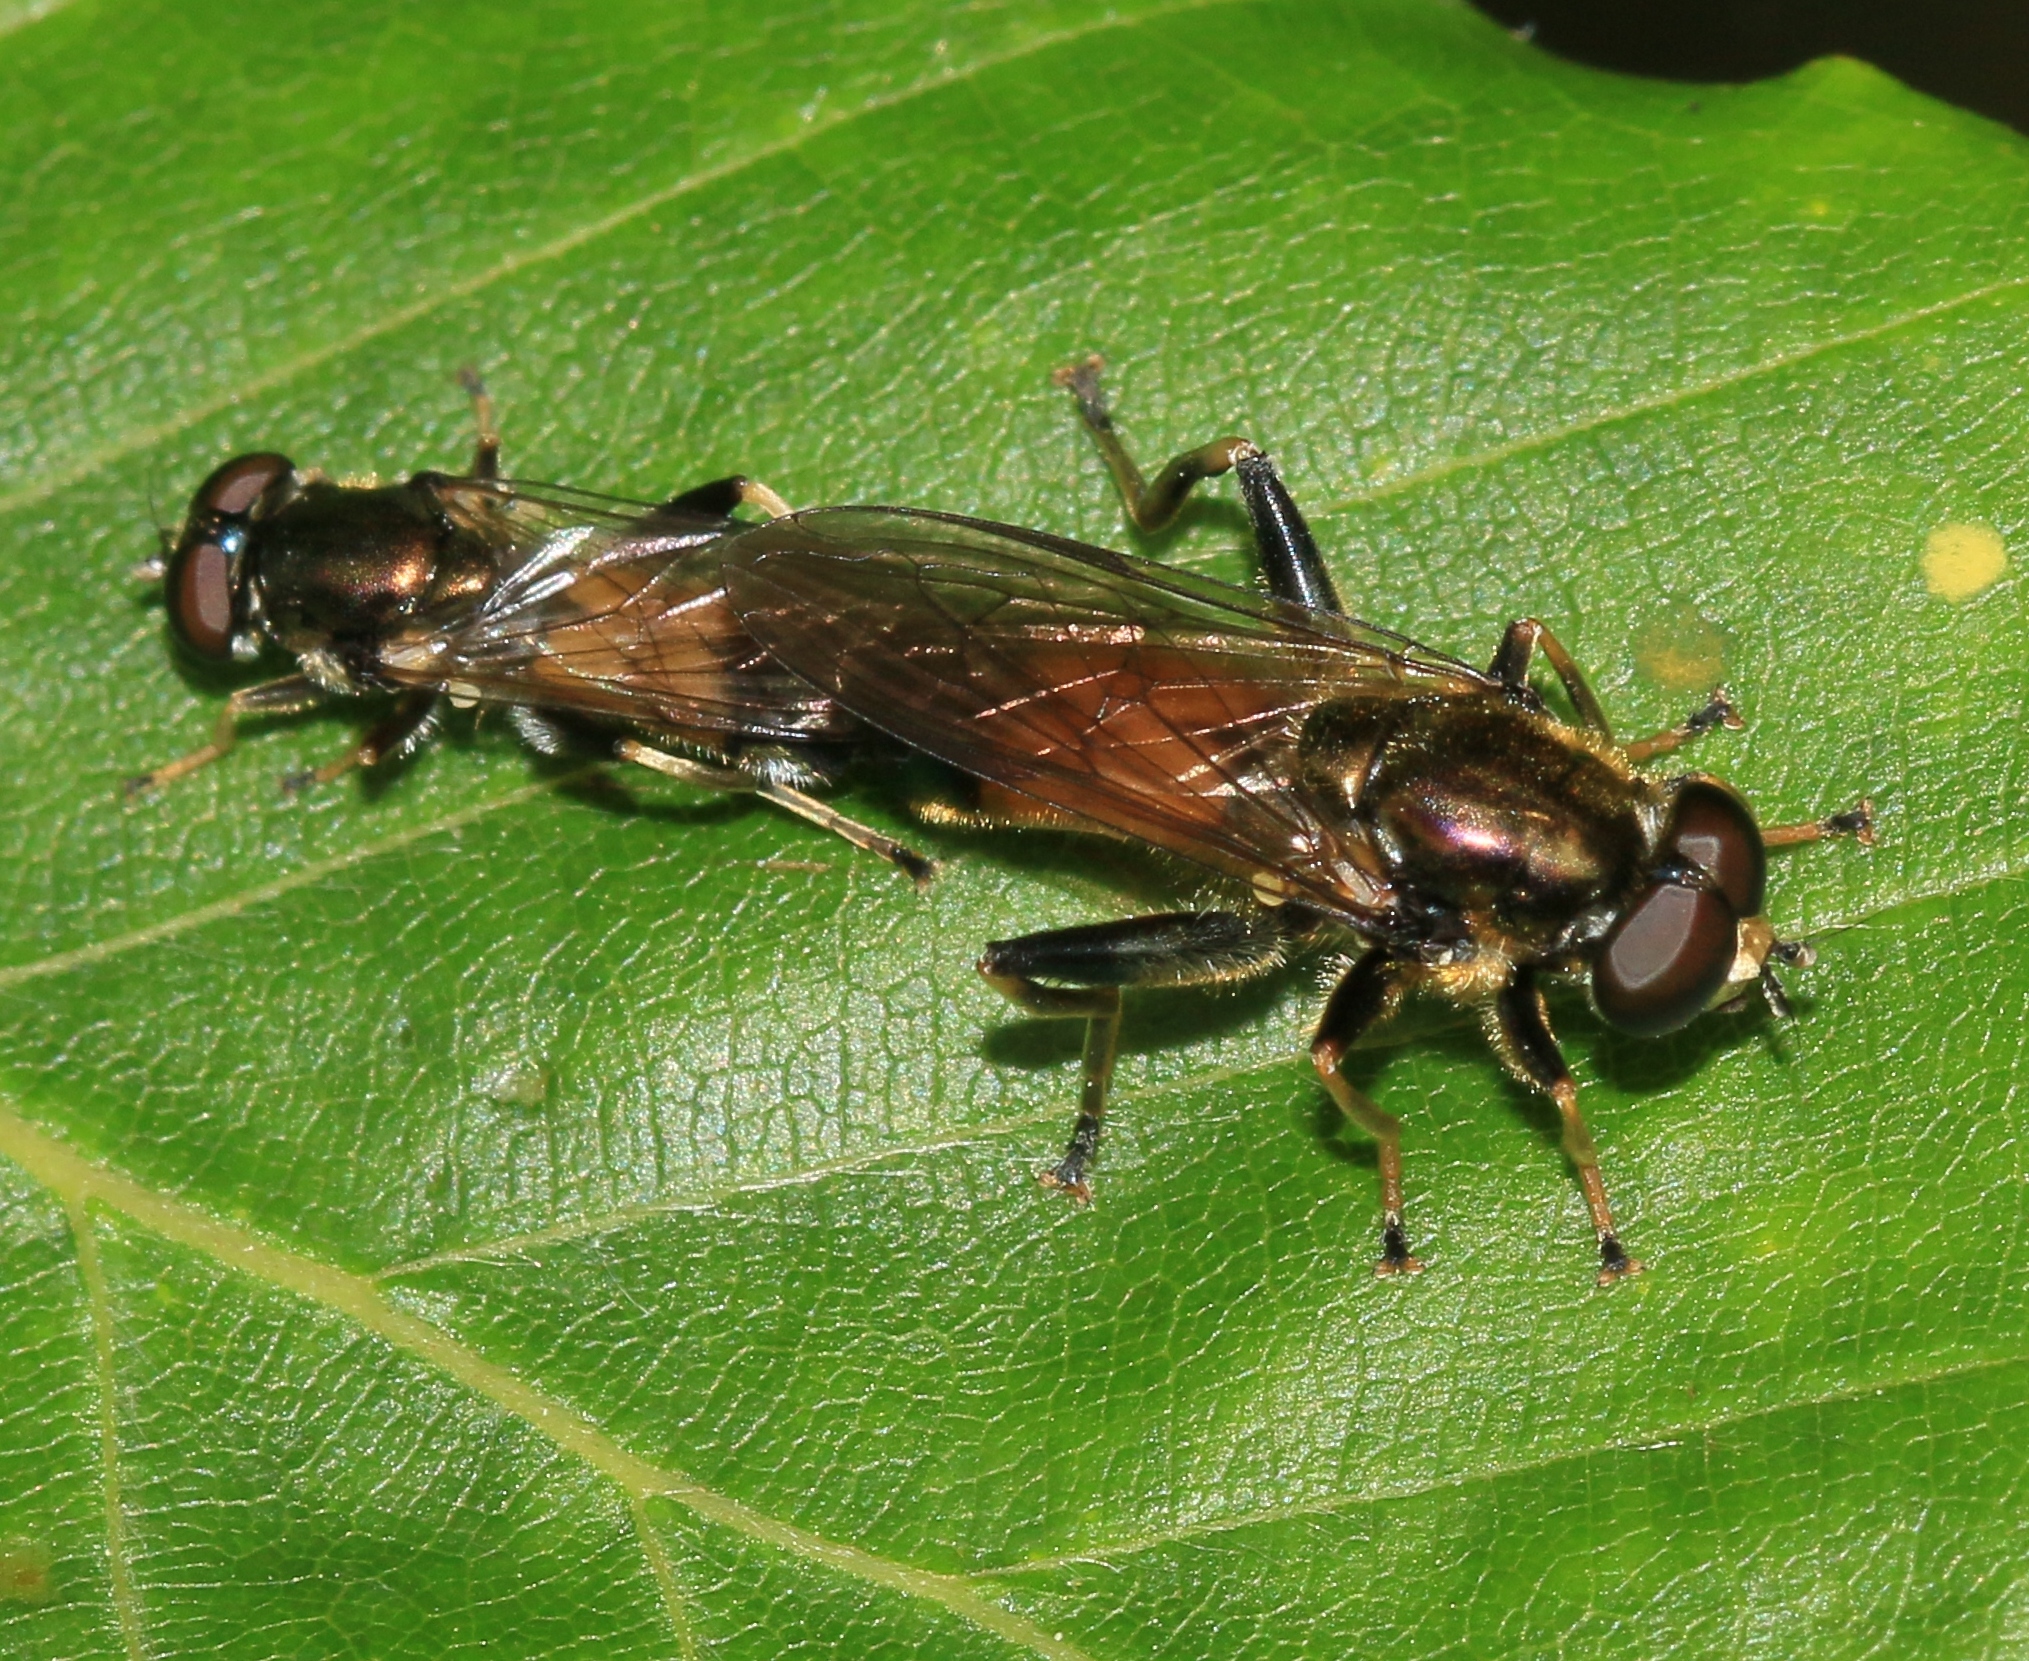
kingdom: Animalia
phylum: Arthropoda
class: Insecta
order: Diptera
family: Syrphidae
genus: Xylota
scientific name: Xylota segnis
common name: Brown-toed forest fly
